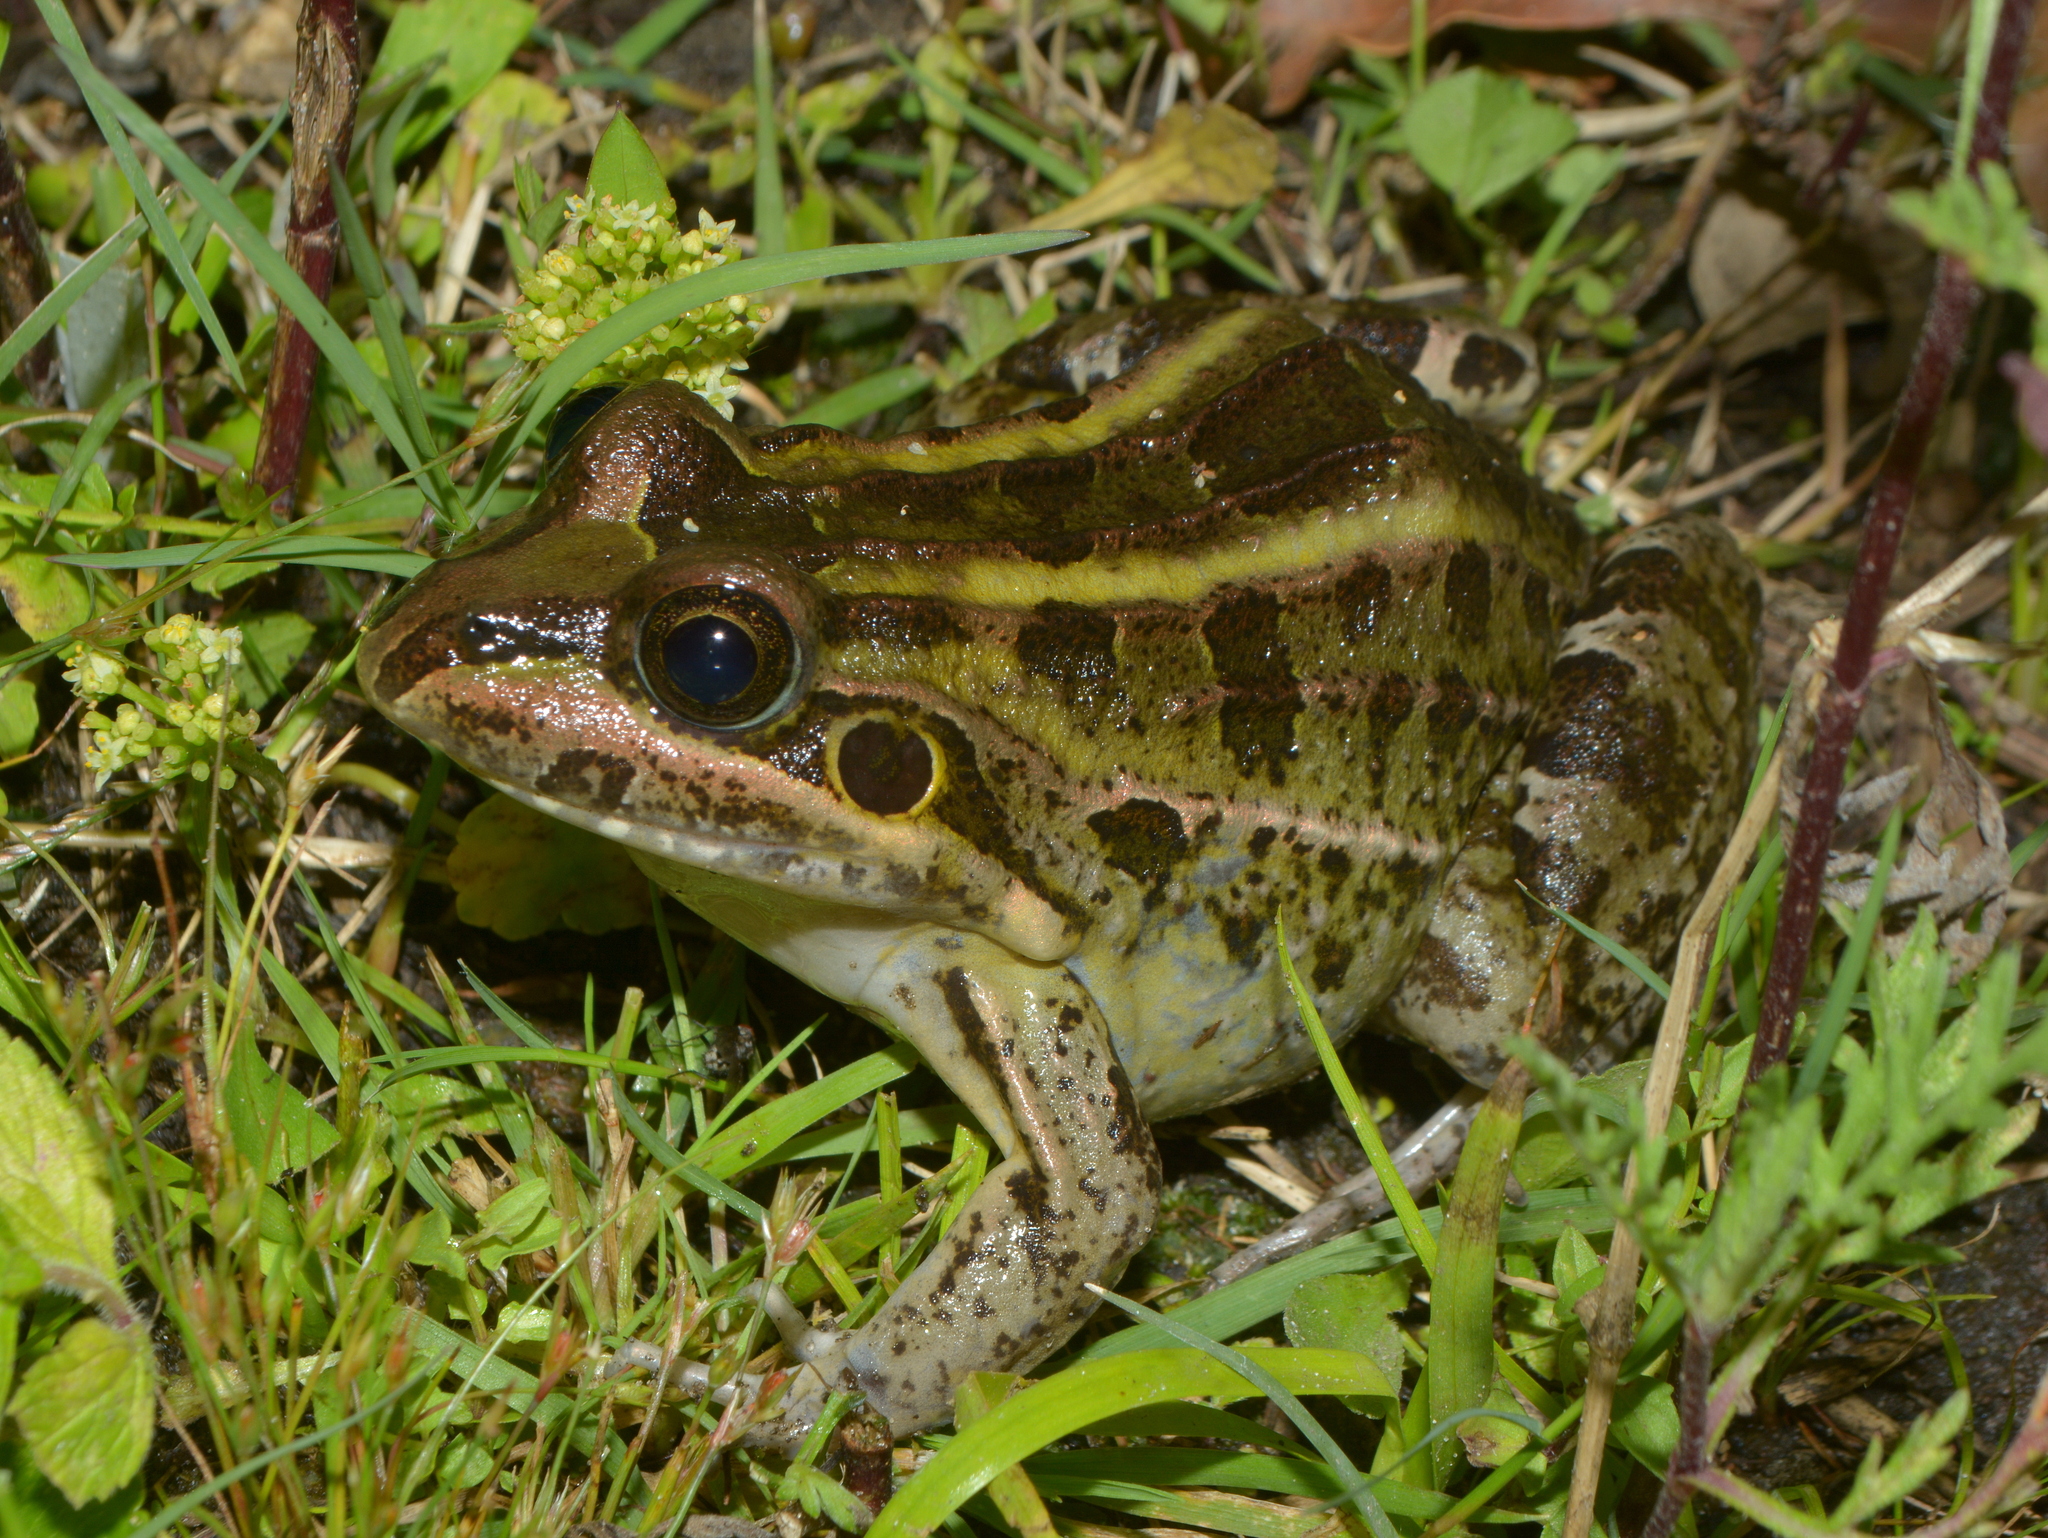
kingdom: Animalia
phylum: Chordata
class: Amphibia
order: Anura
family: Leptodactylidae
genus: Leptodactylus
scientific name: Leptodactylus luctator
